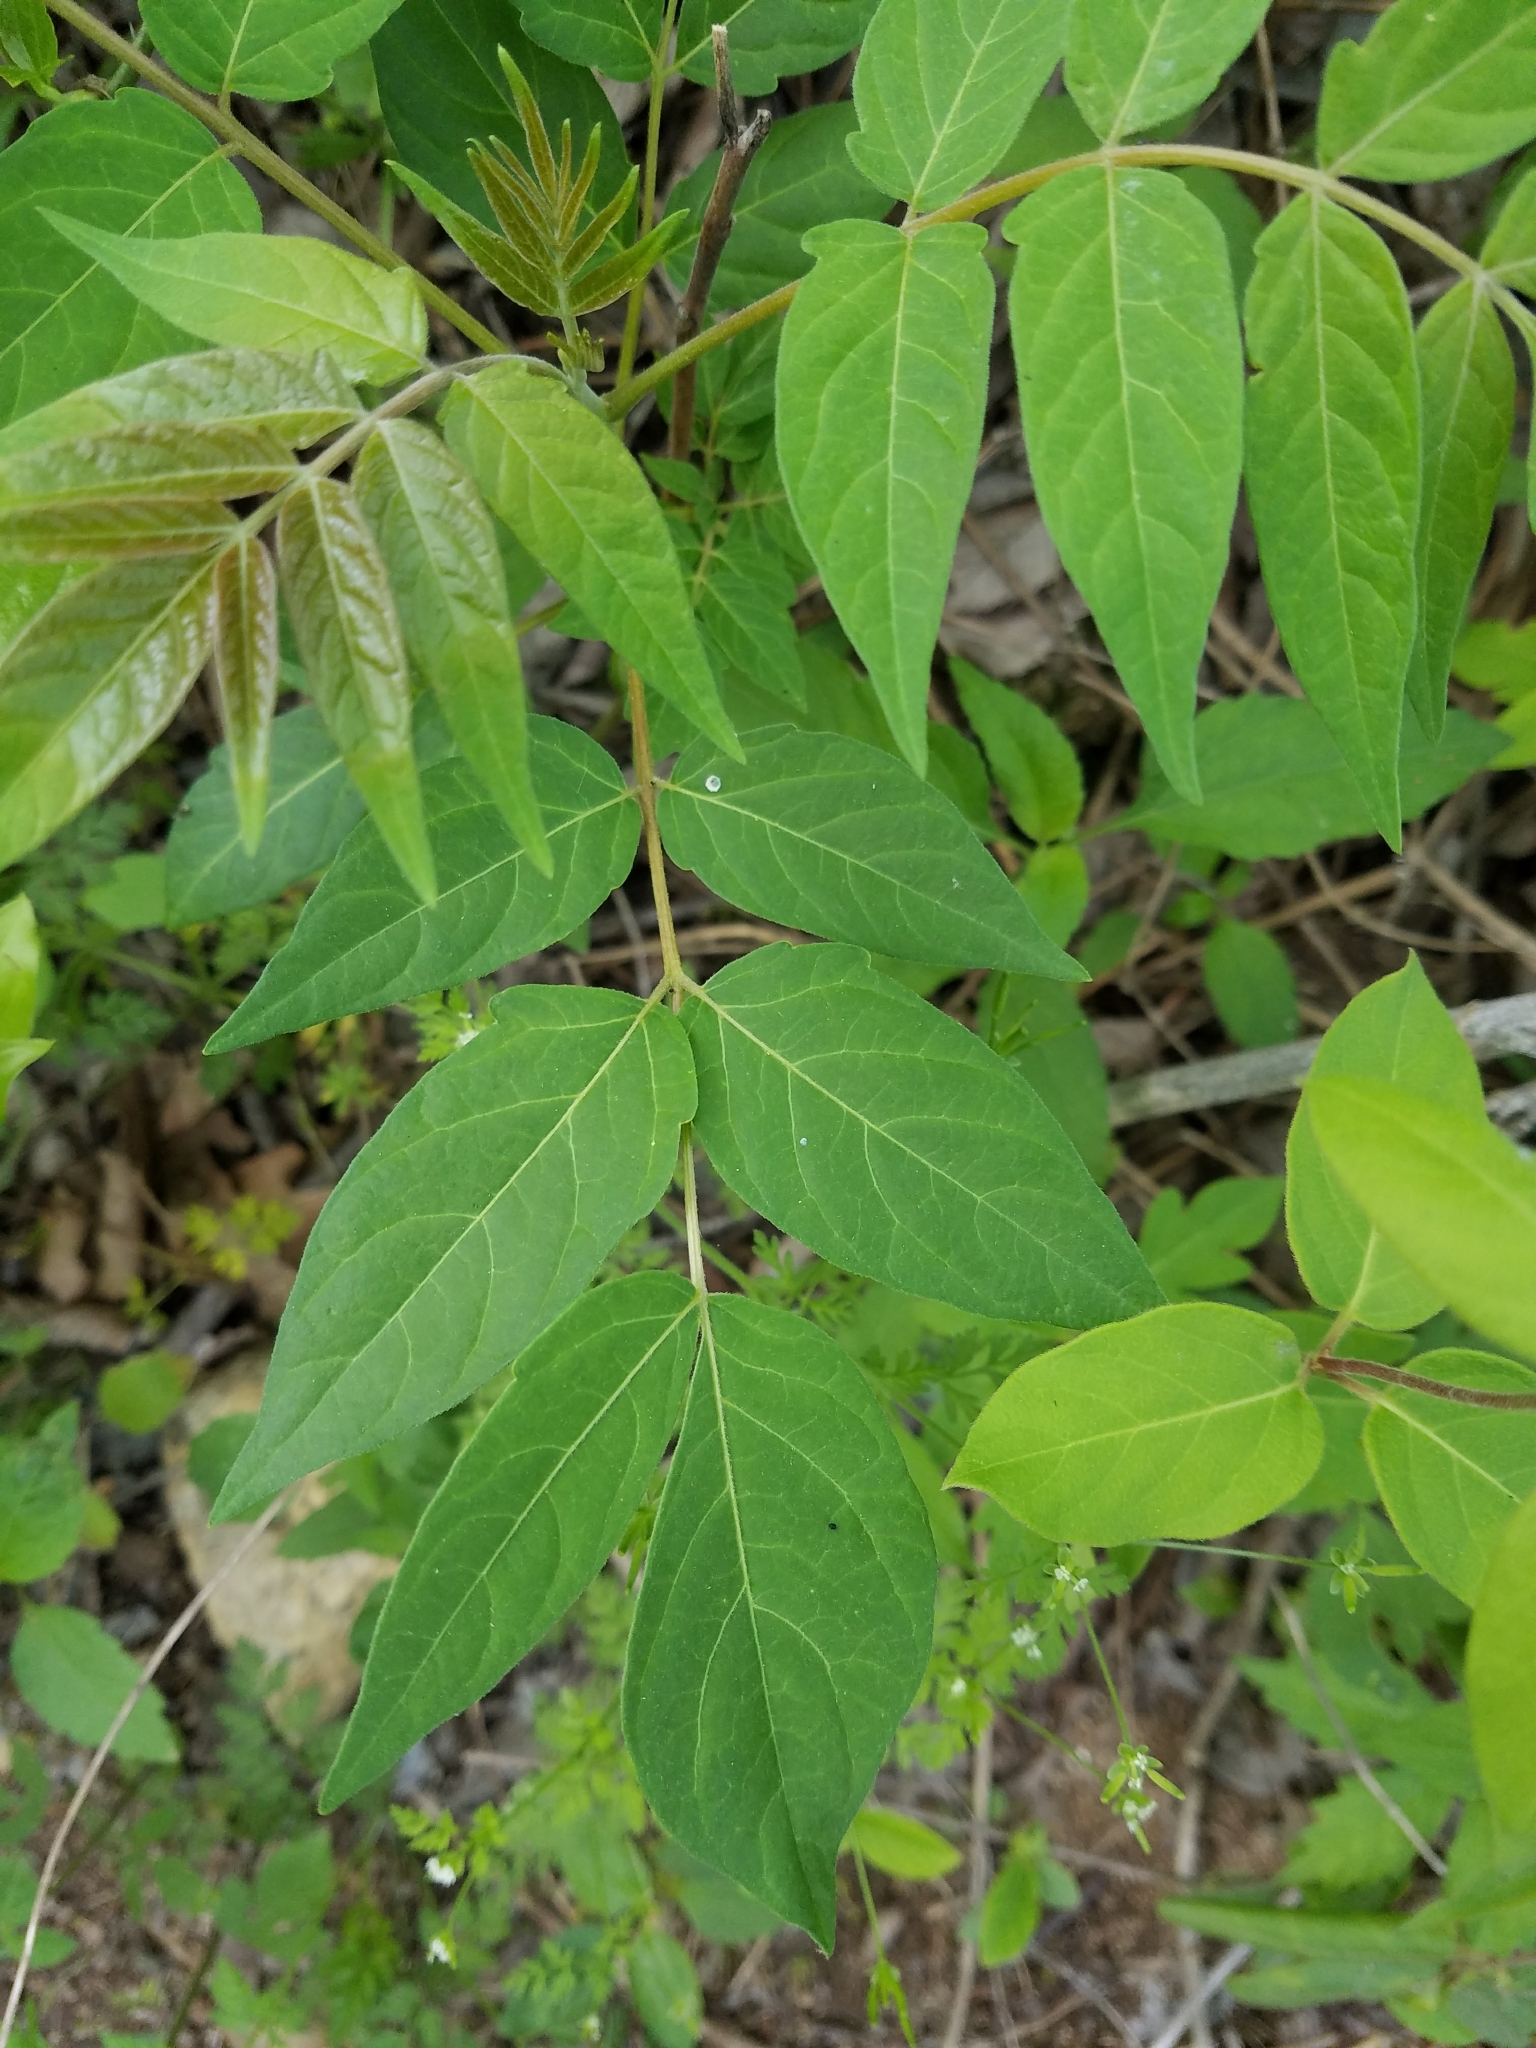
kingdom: Plantae
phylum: Tracheophyta
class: Magnoliopsida
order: Sapindales
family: Simaroubaceae
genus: Ailanthus
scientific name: Ailanthus altissima
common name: Tree-of-heaven
